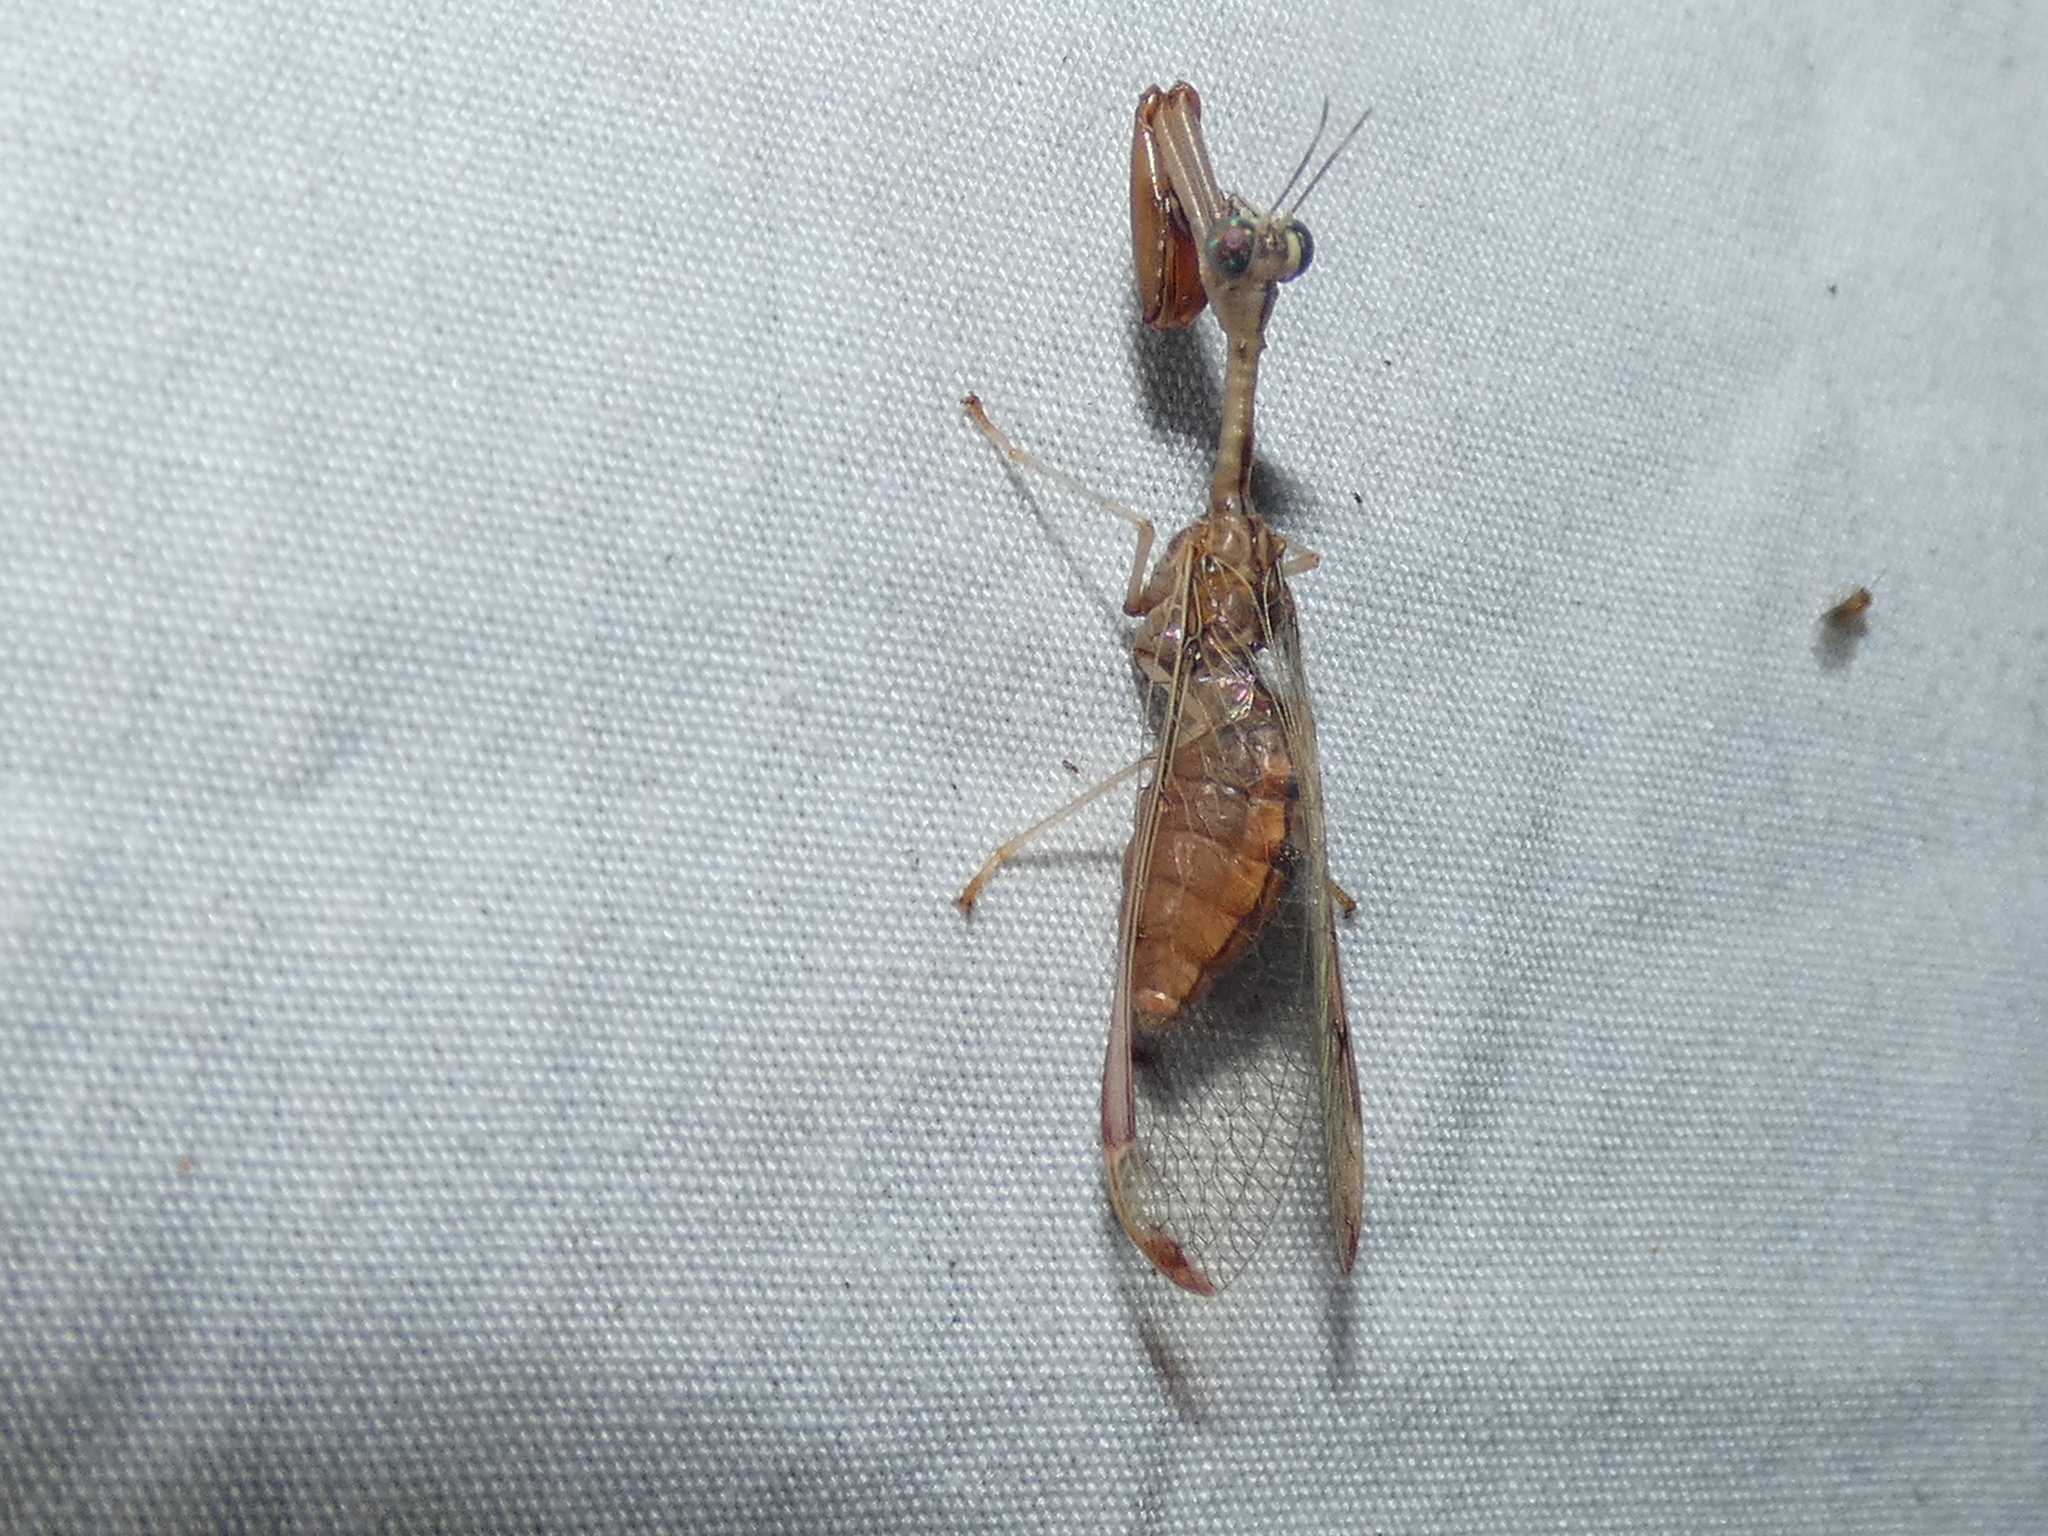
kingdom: Animalia
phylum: Arthropoda
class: Insecta
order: Neuroptera
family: Mantispidae
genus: Dicromantispa
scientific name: Dicromantispa interrupta
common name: Four-spotted mantidfly
